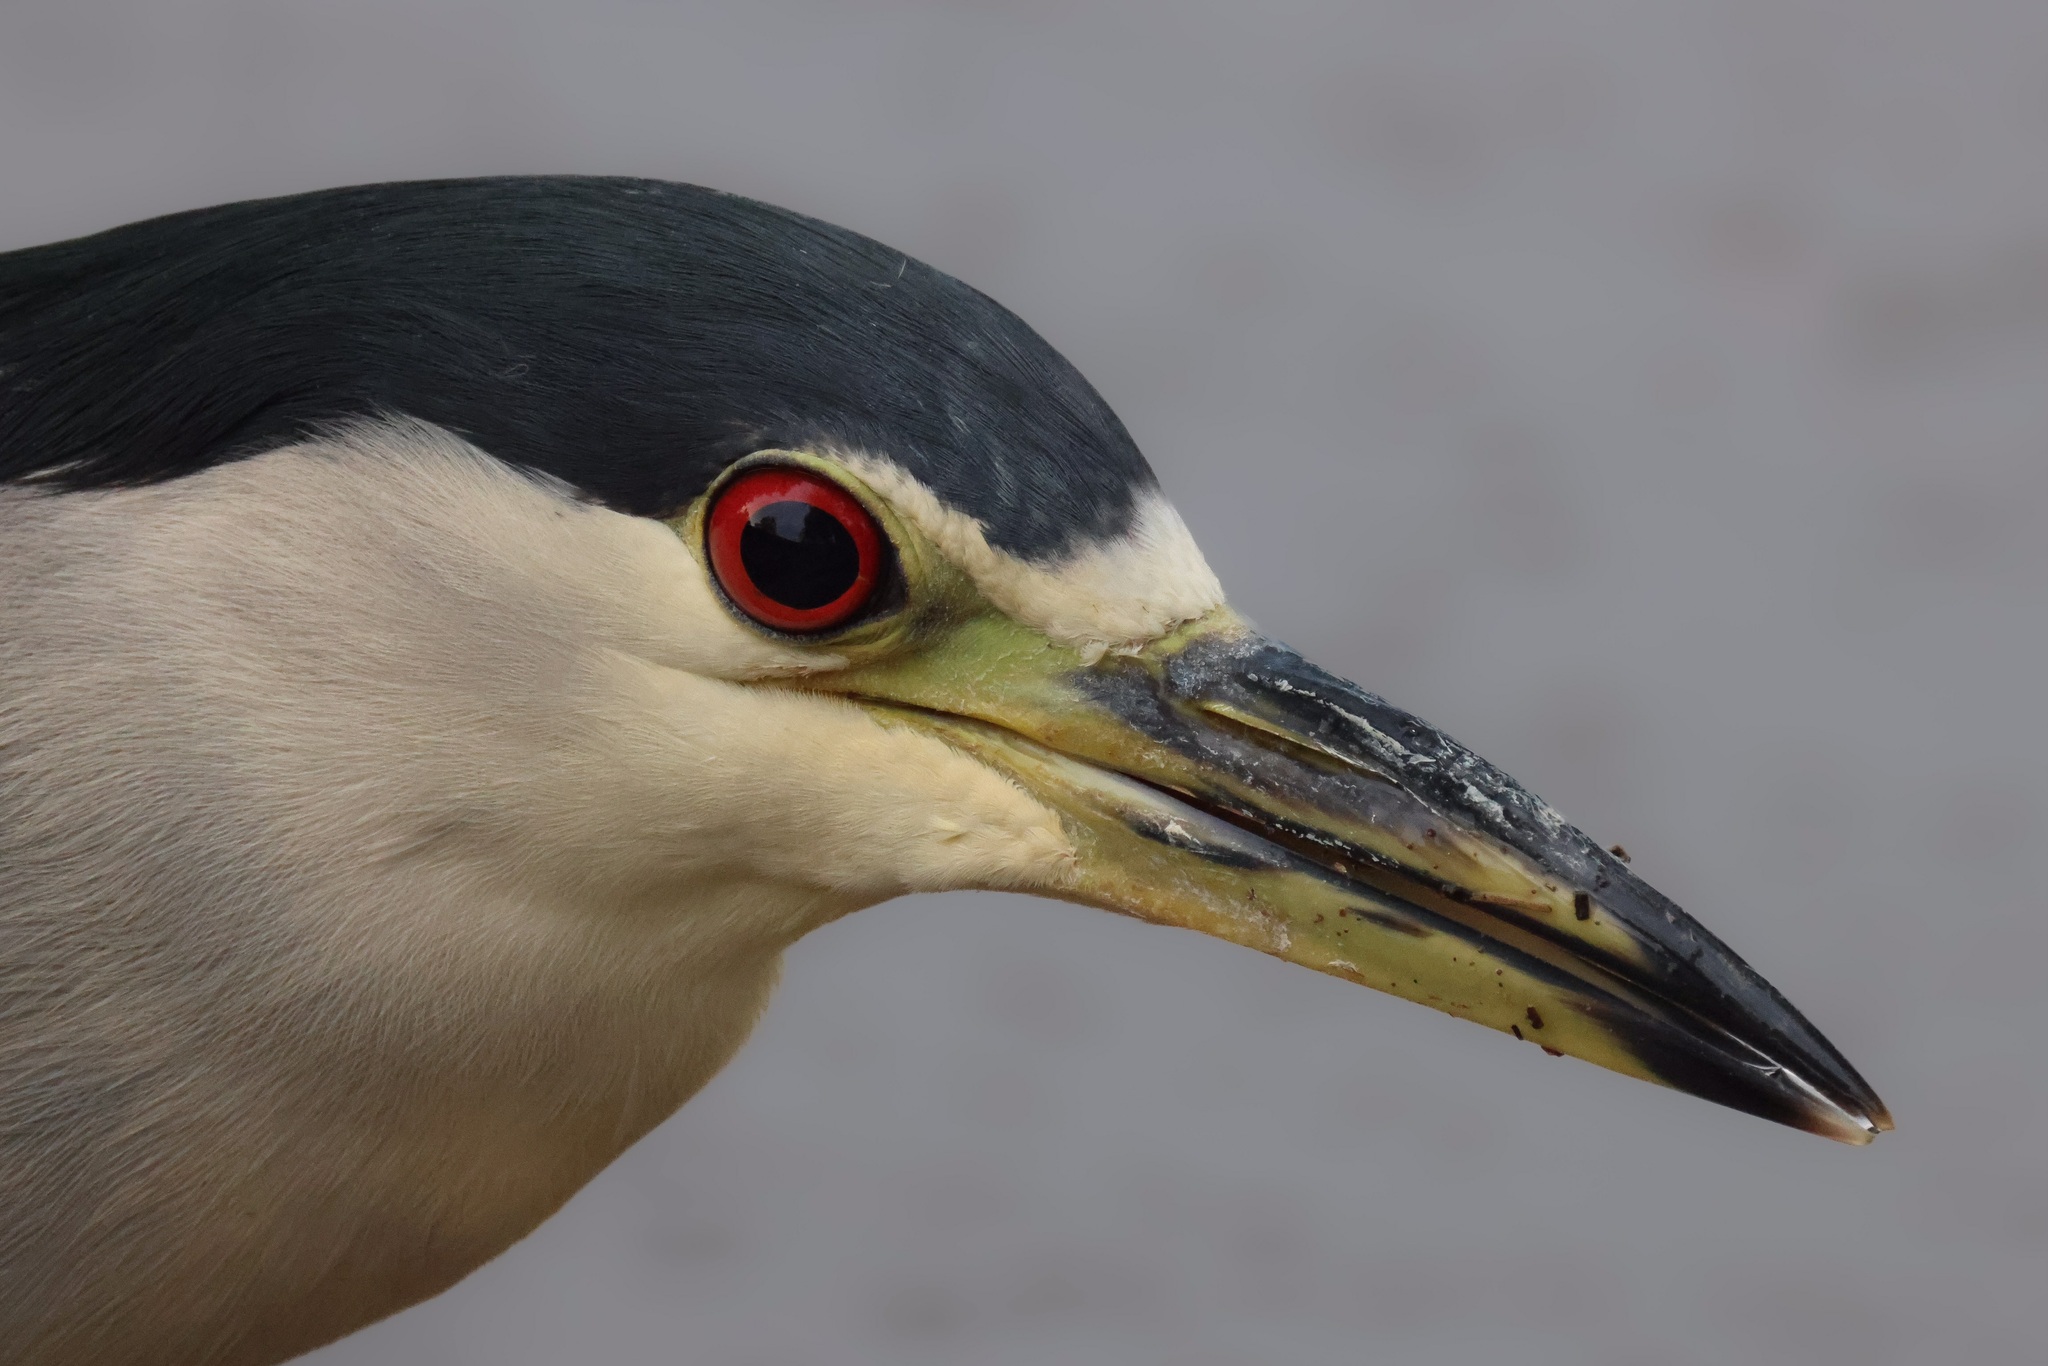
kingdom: Animalia
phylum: Chordata
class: Aves
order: Pelecaniformes
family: Ardeidae
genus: Nycticorax
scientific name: Nycticorax nycticorax
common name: Black-crowned night heron
